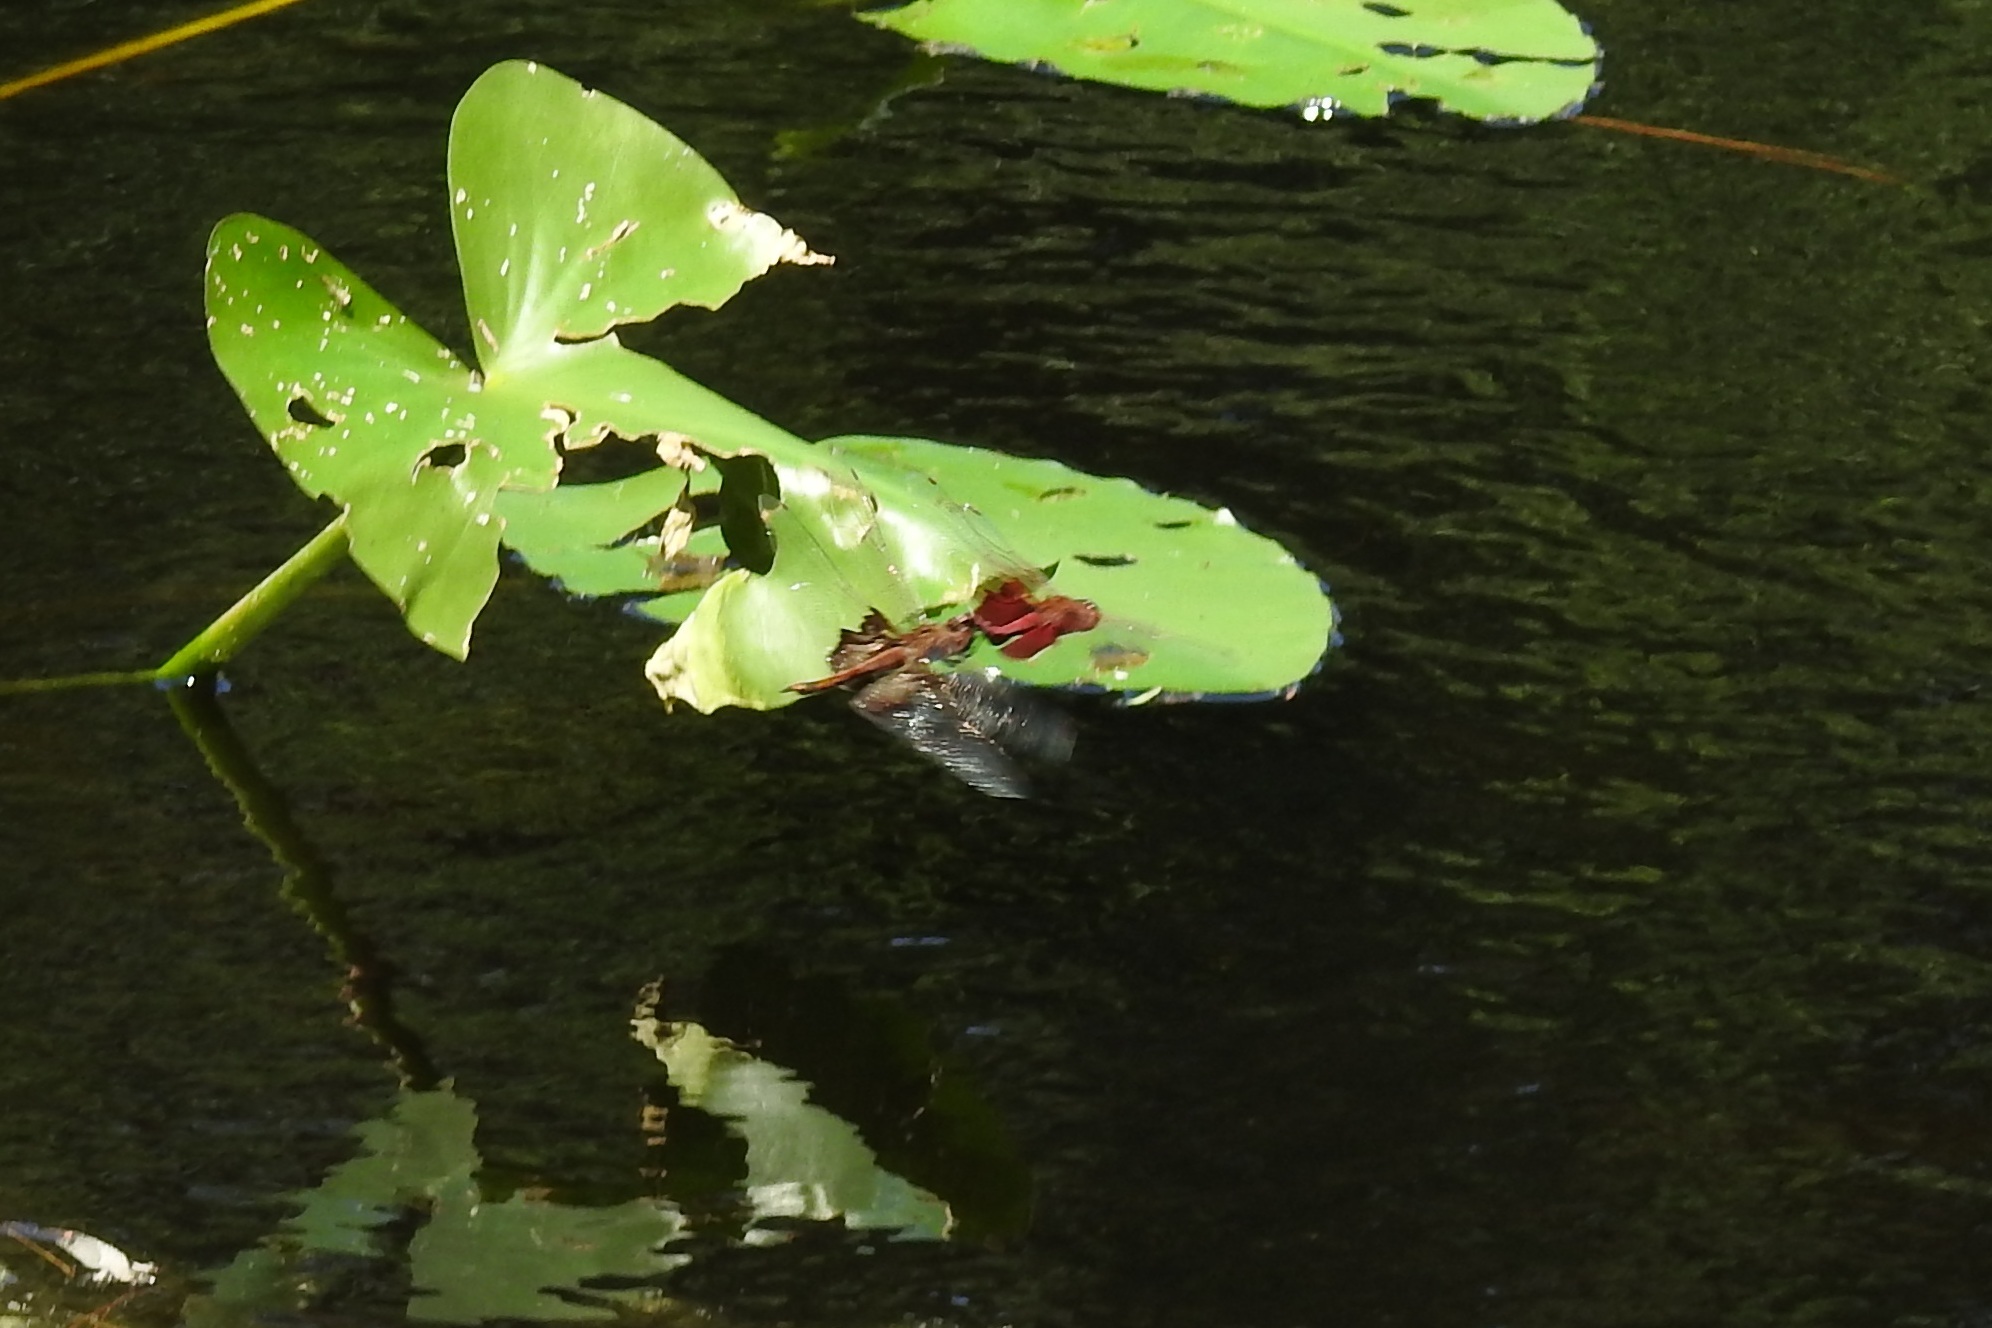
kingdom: Animalia
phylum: Arthropoda
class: Insecta
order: Odonata
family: Libellulidae
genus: Tramea
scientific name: Tramea carolina
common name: Carolina saddlebags
